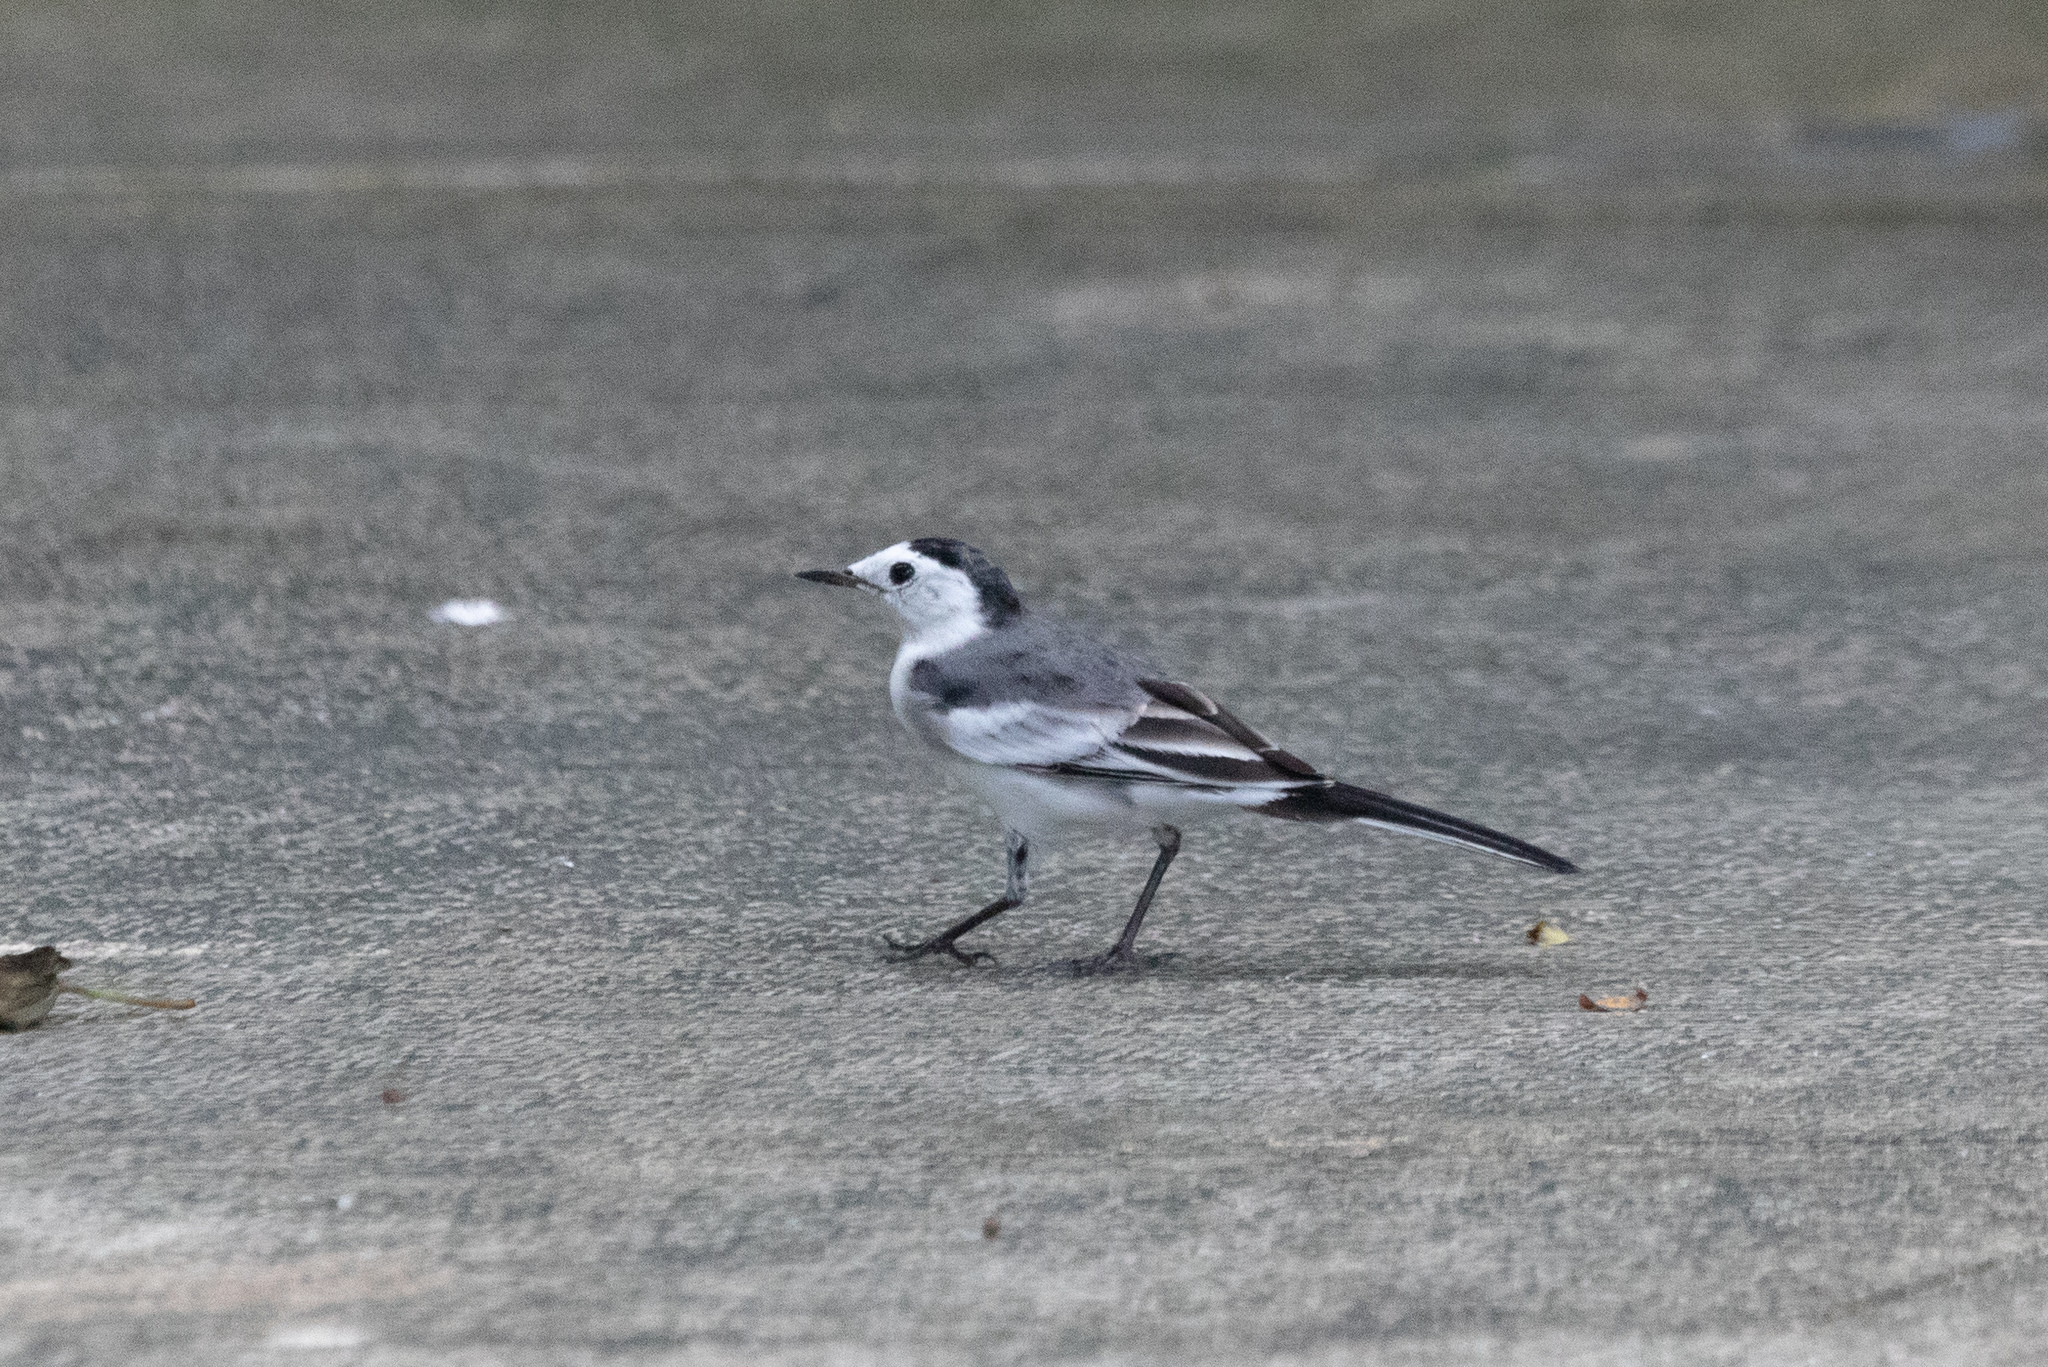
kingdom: Animalia
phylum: Chordata
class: Aves
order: Passeriformes
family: Motacillidae
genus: Motacilla
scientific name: Motacilla alba
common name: White wagtail
